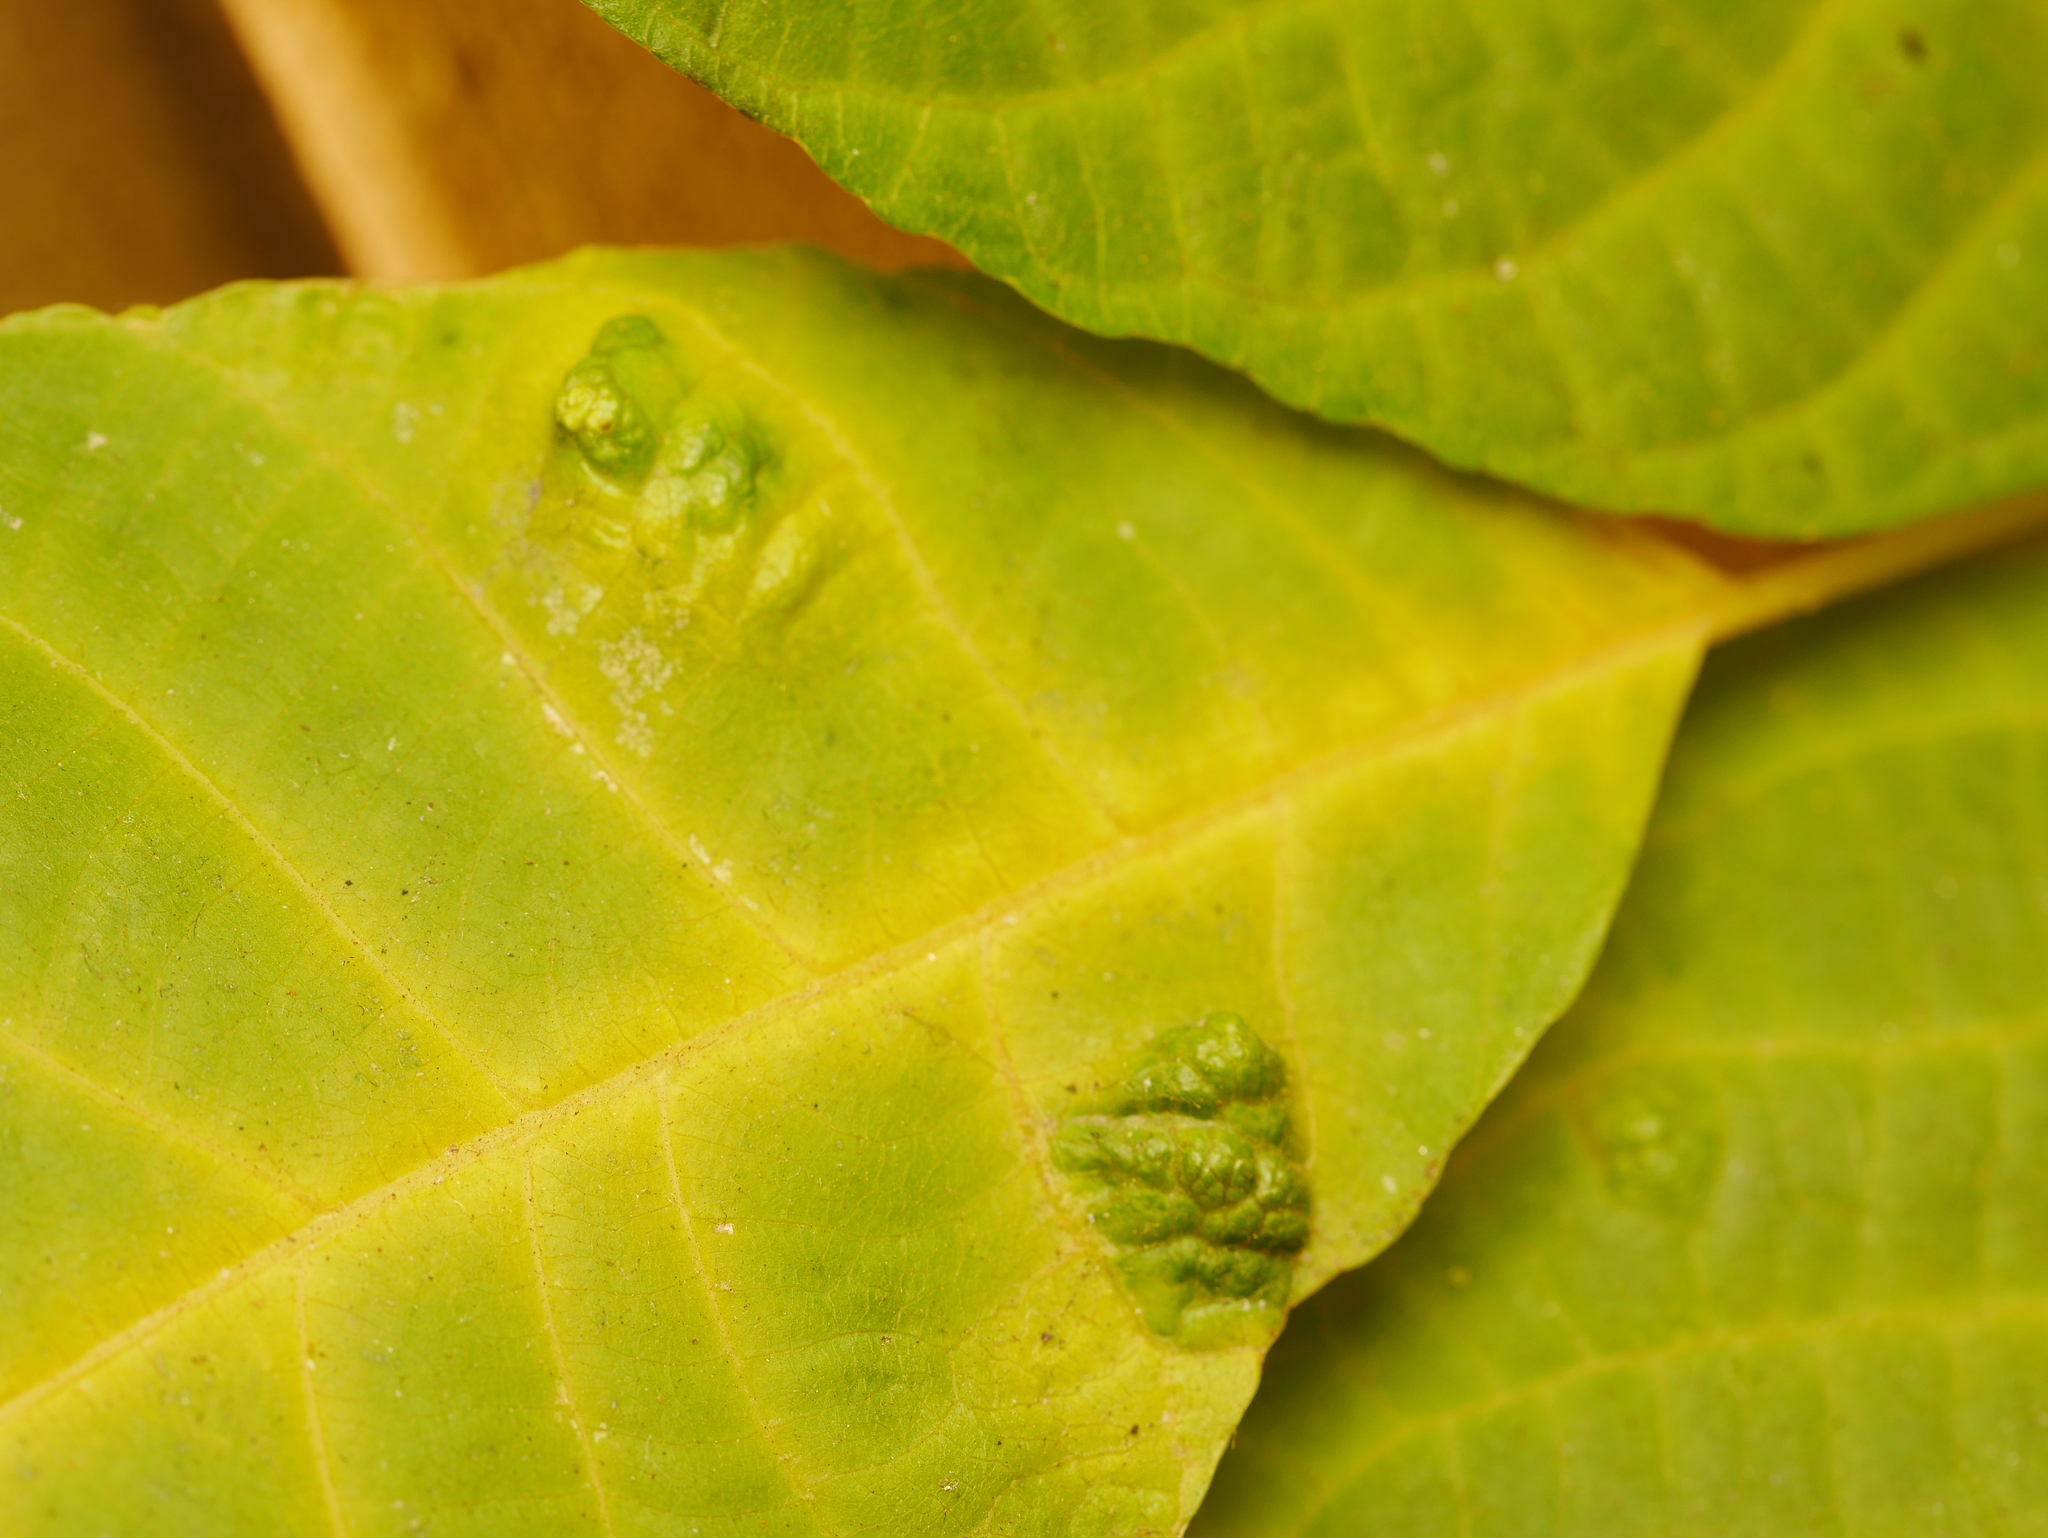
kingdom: Animalia
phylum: Arthropoda
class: Arachnida
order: Trombidiformes
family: Eriophyidae
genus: Aceria
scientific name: Aceria erinea
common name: Persian walnut erineum mite
